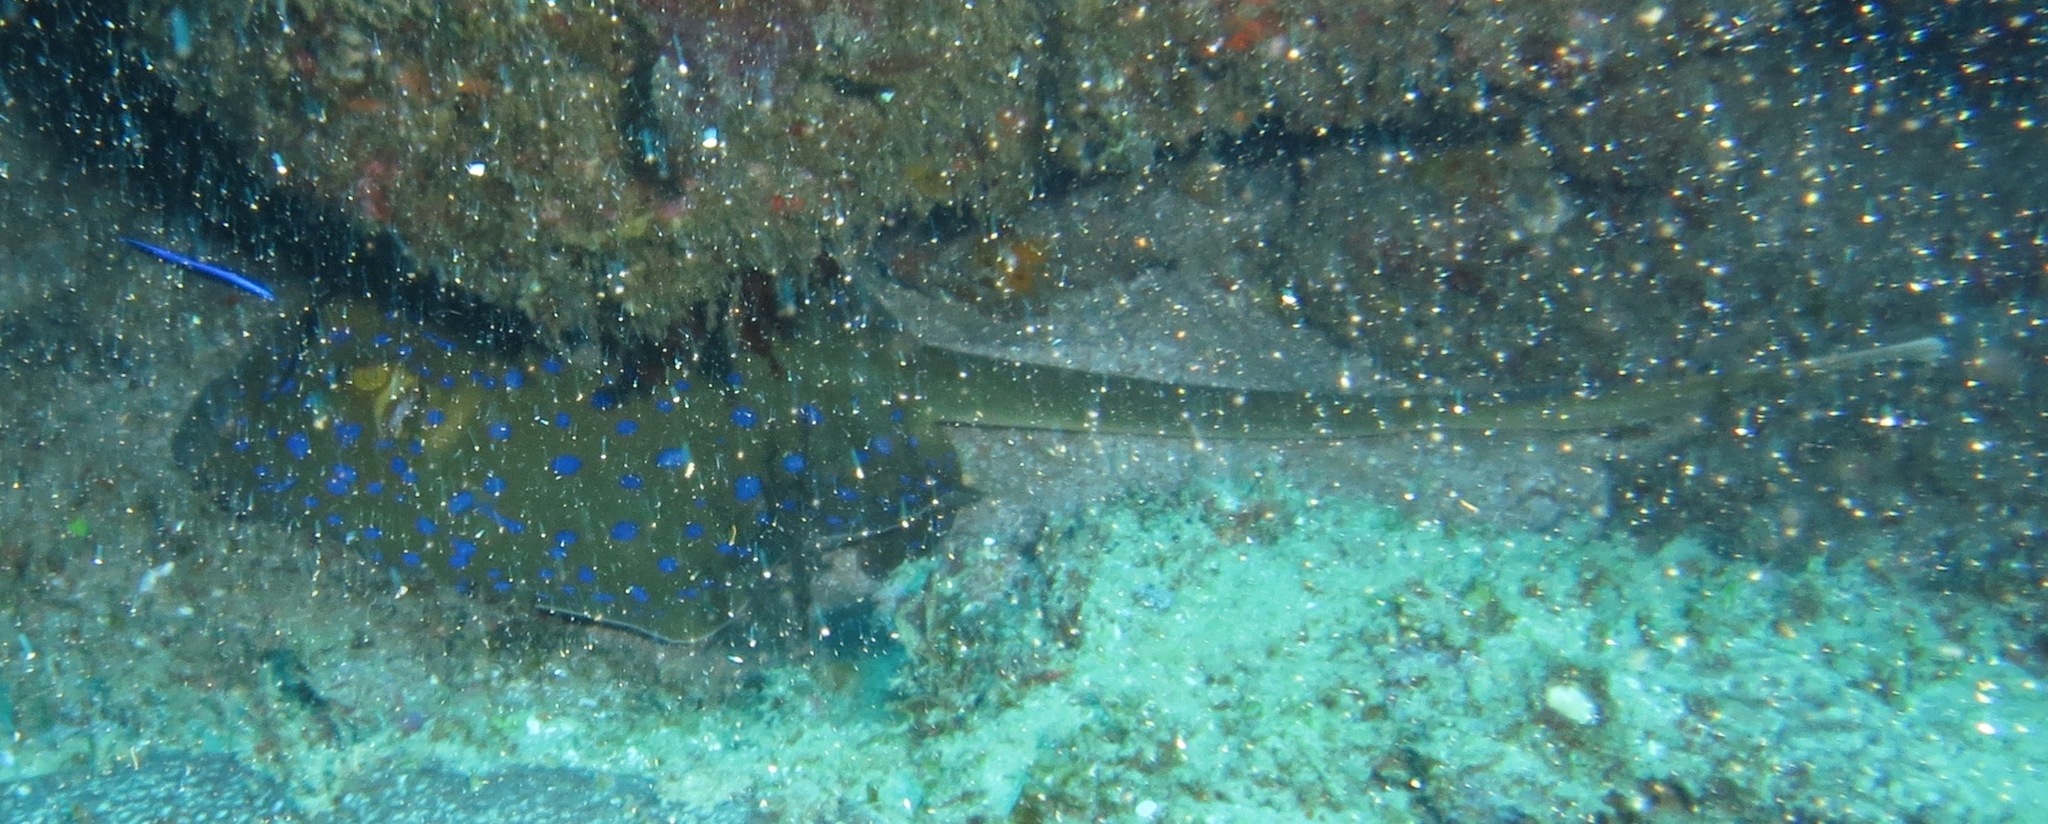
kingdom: Animalia
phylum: Chordata
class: Elasmobranchii
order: Myliobatiformes
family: Dasyatidae
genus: Taeniura
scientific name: Taeniura lymma
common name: Bluespotted ribbontail ray
